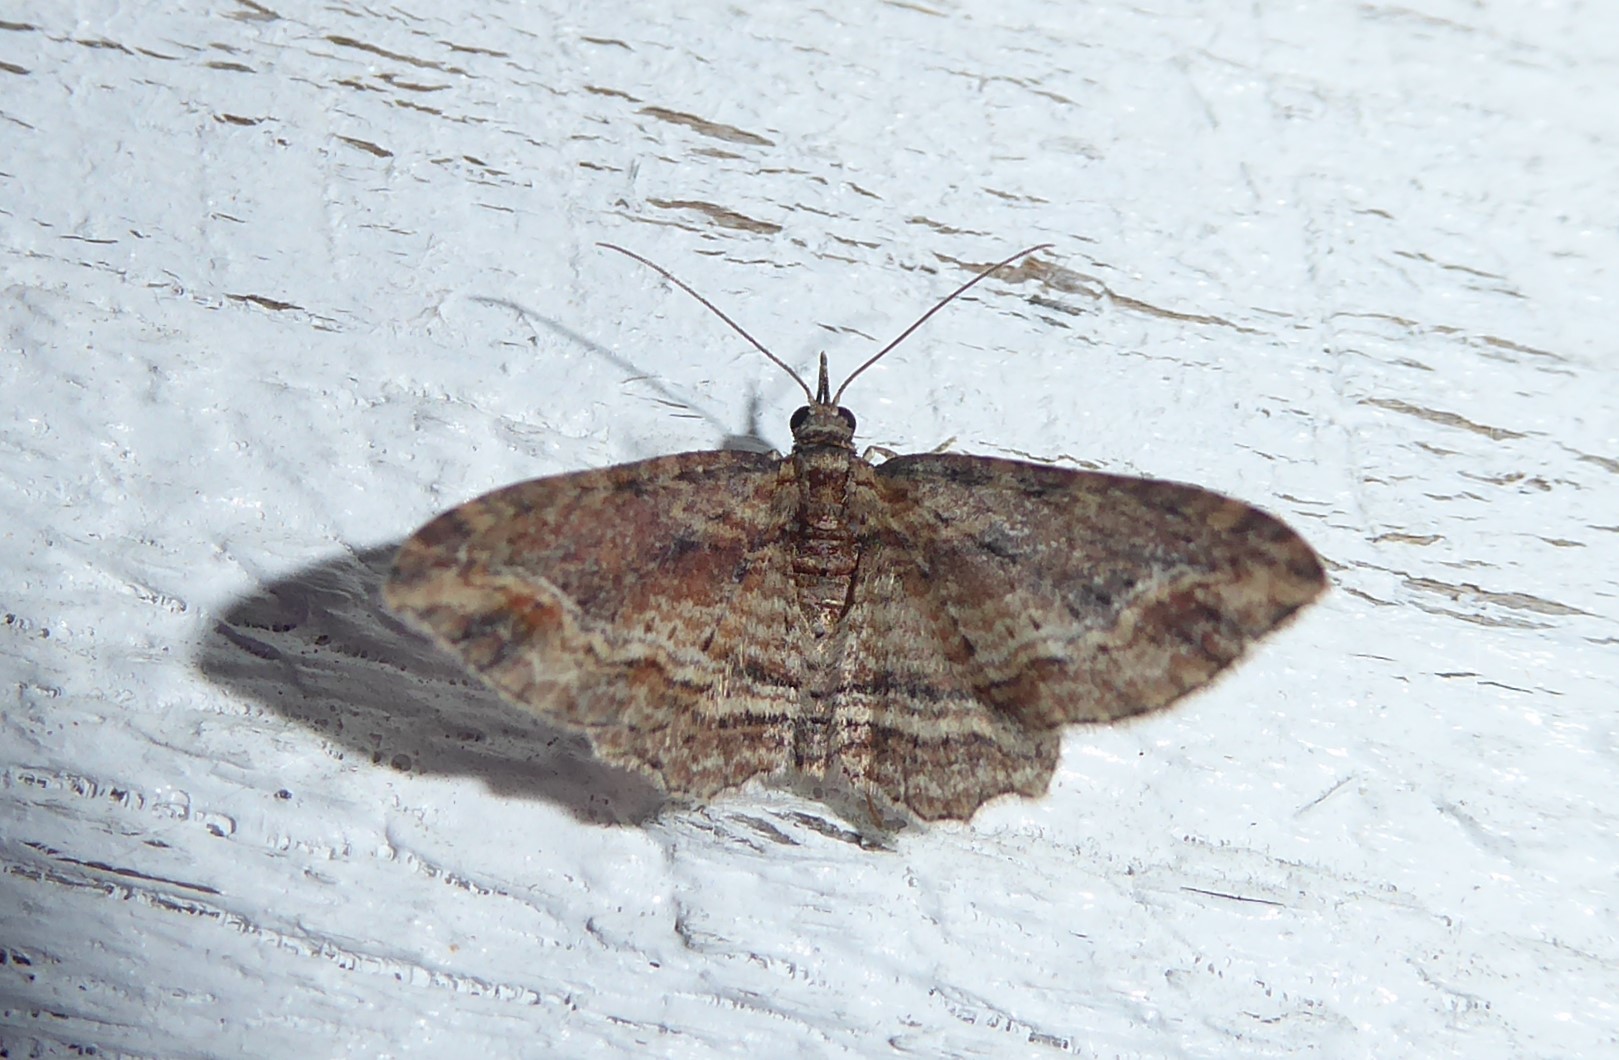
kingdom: Animalia
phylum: Arthropoda
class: Insecta
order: Lepidoptera
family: Geometridae
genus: Chloroclystis
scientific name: Chloroclystis filata
